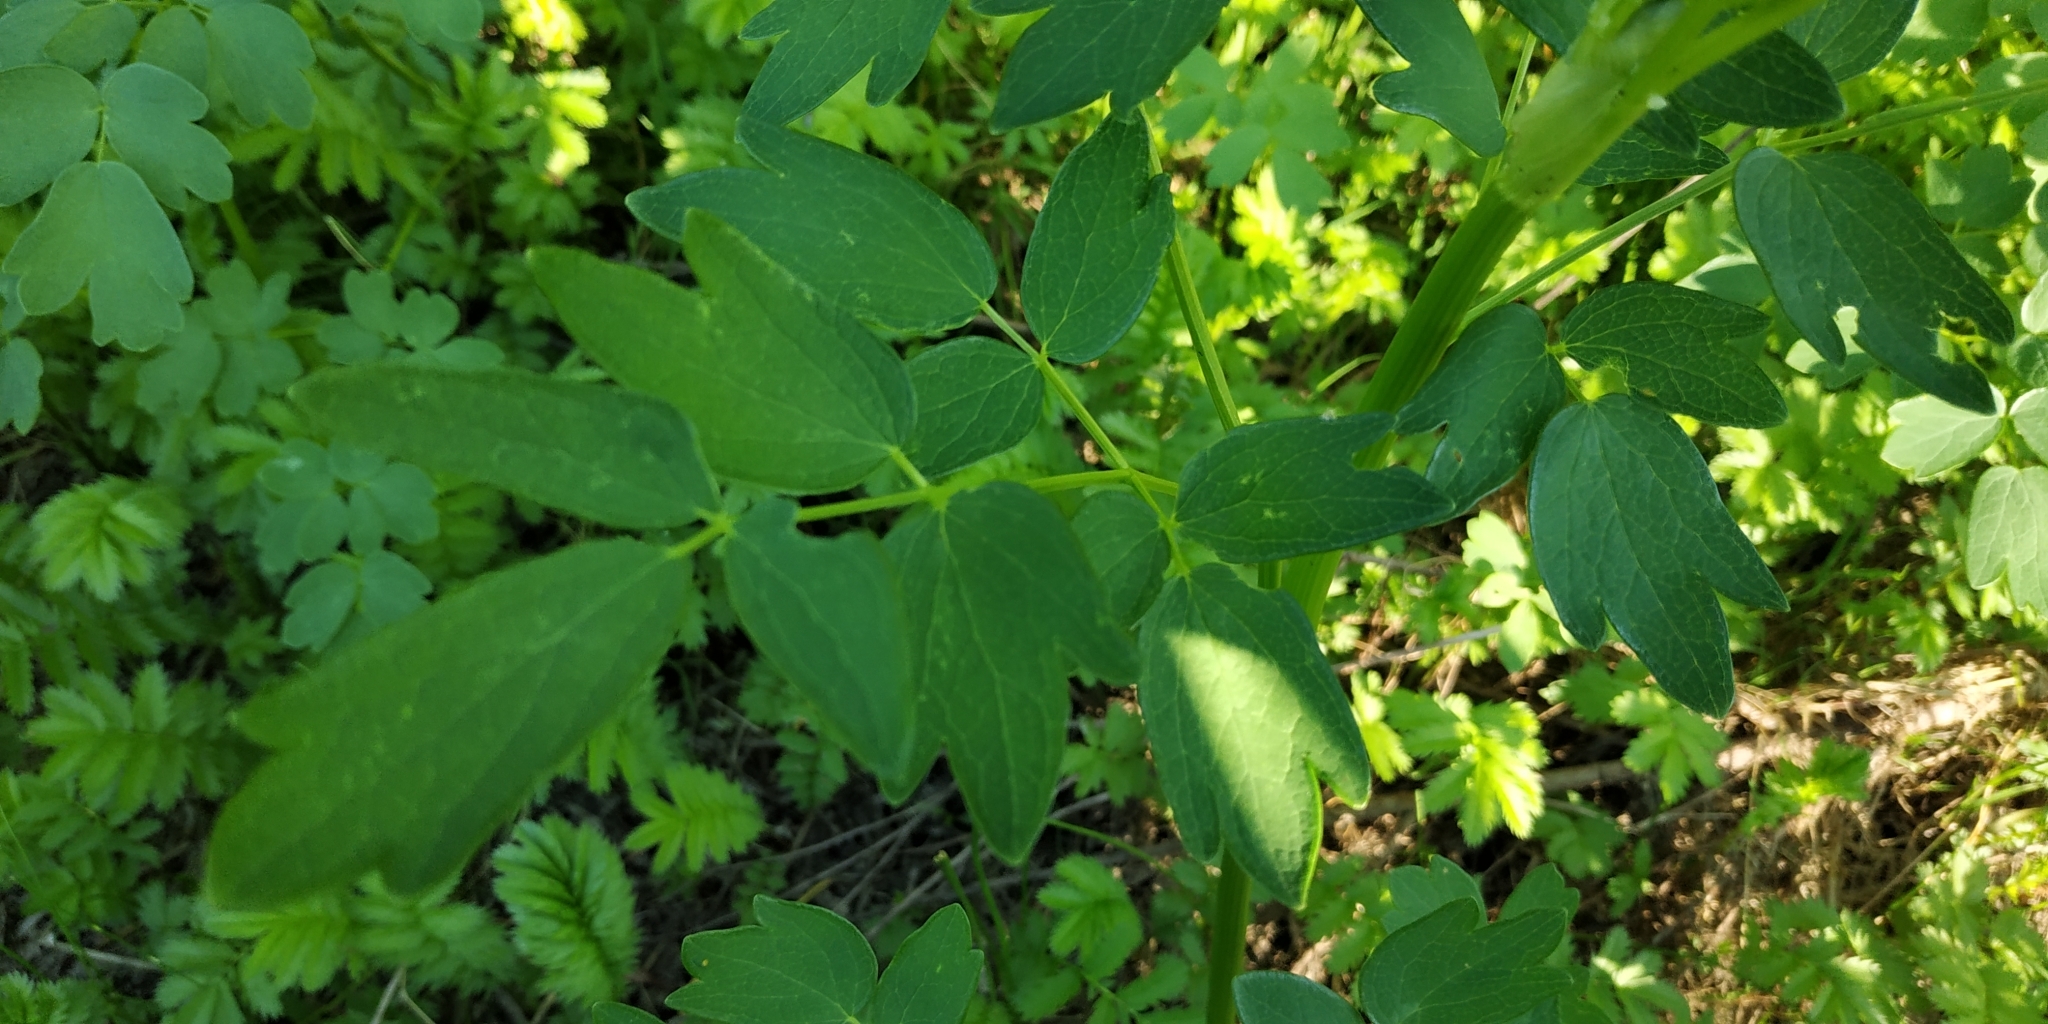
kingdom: Plantae
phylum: Tracheophyta
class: Magnoliopsida
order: Ranunculales
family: Ranunculaceae
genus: Thalictrum
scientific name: Thalictrum simplex
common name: Small meadow-rue
